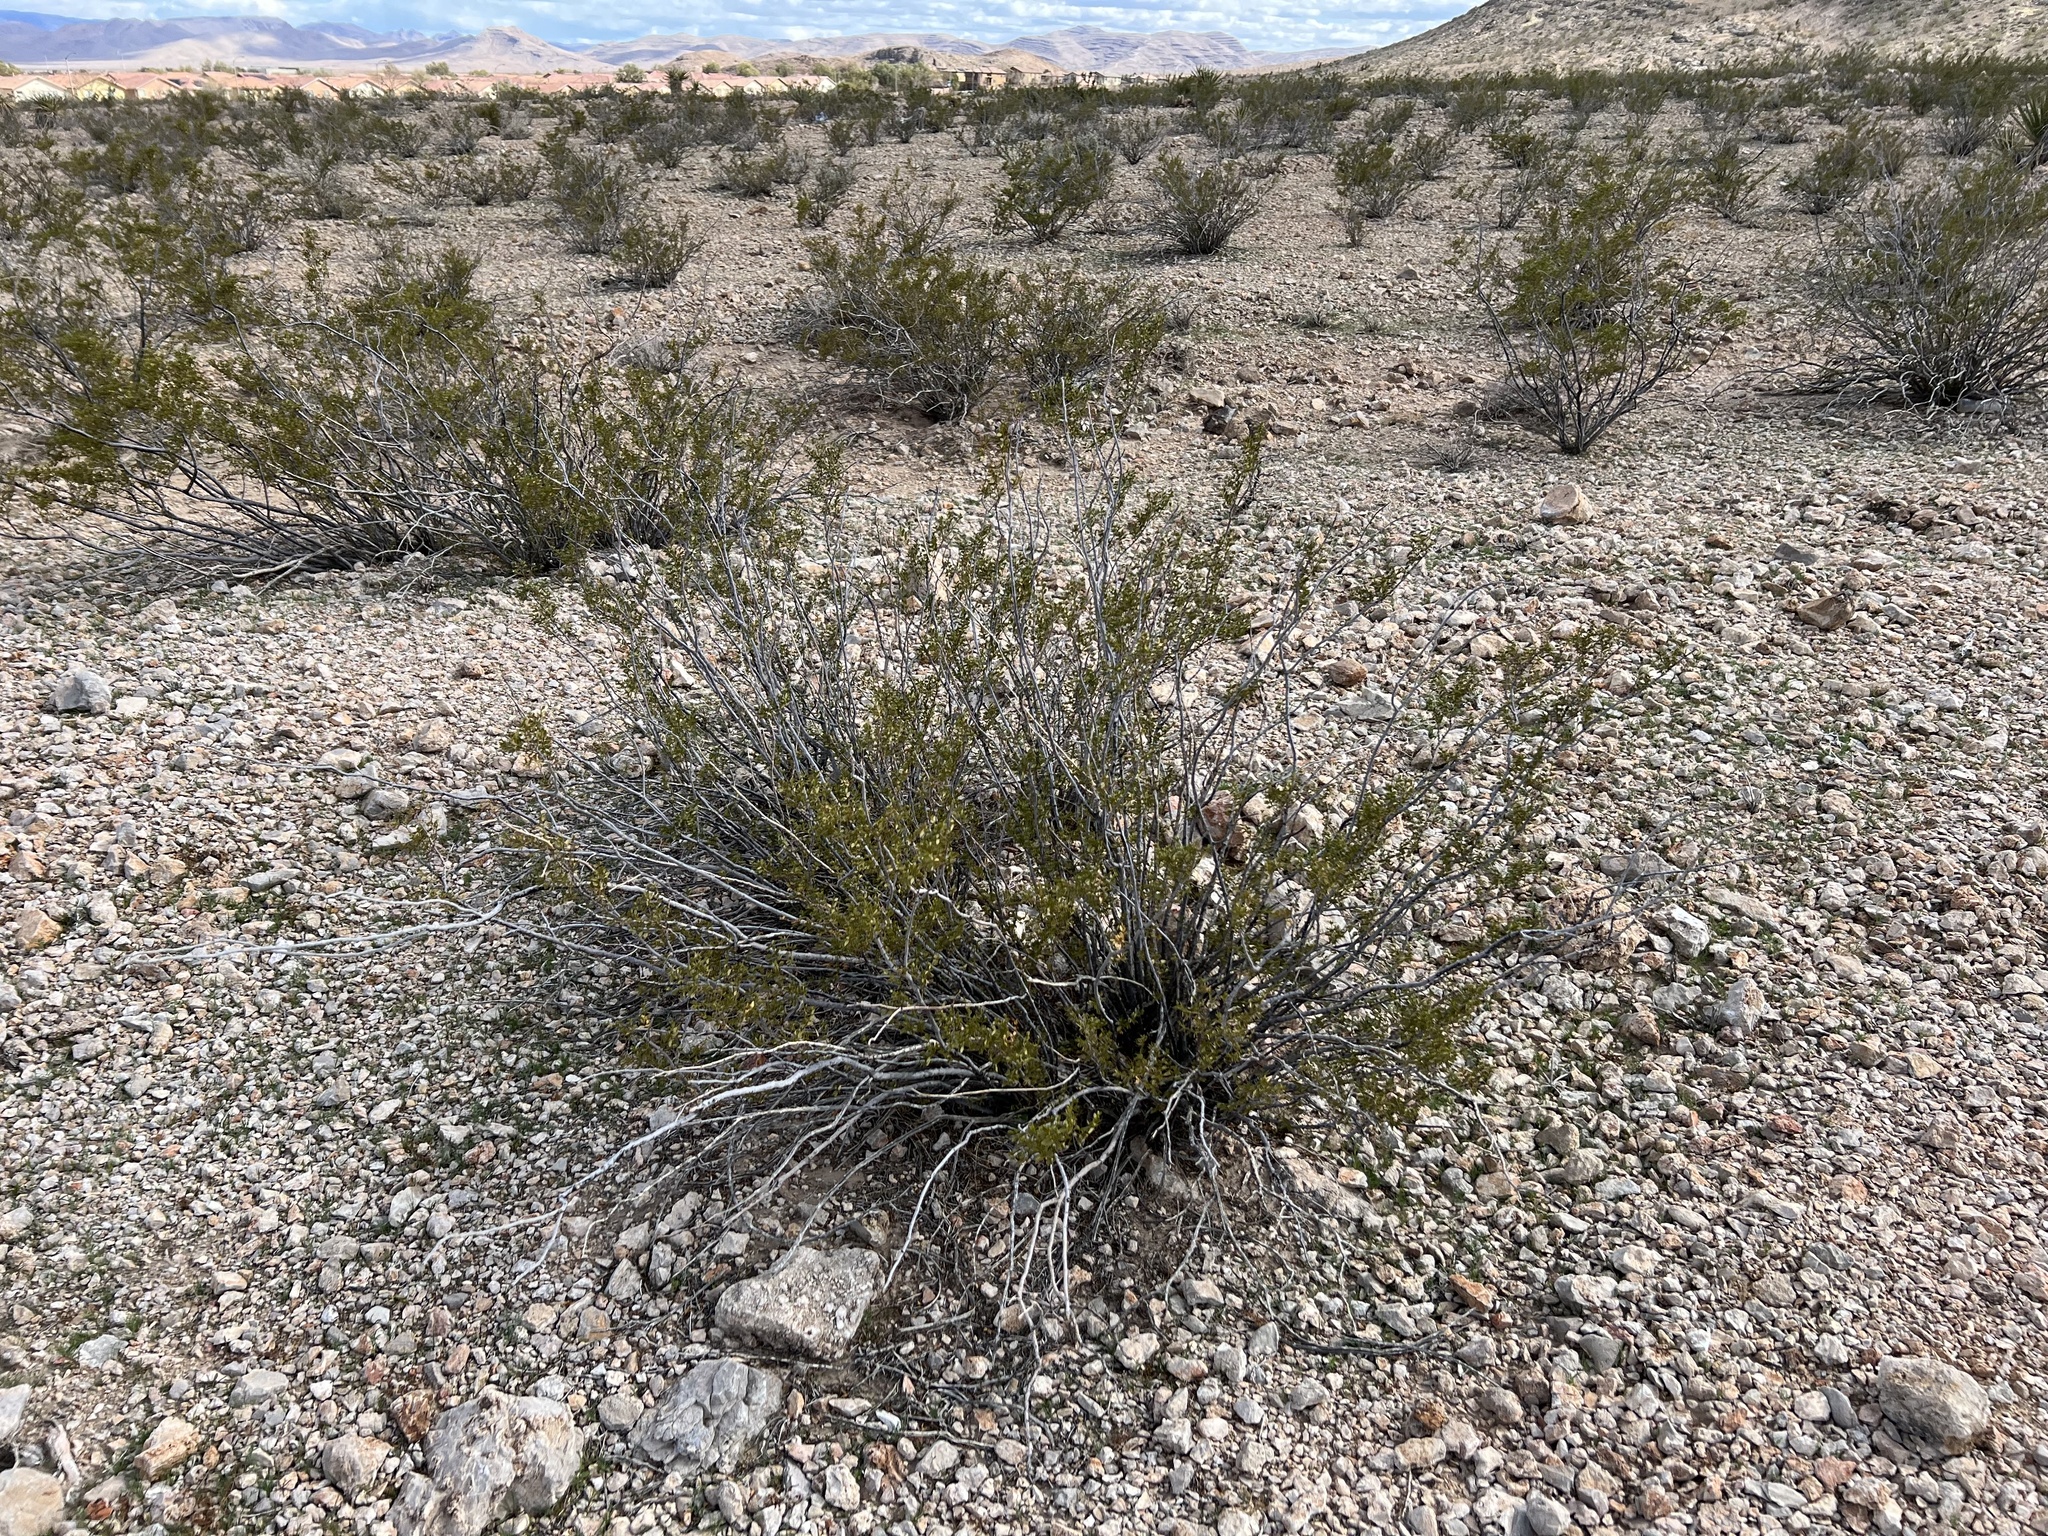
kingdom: Plantae
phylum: Tracheophyta
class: Magnoliopsida
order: Zygophyllales
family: Zygophyllaceae
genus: Larrea
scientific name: Larrea tridentata
